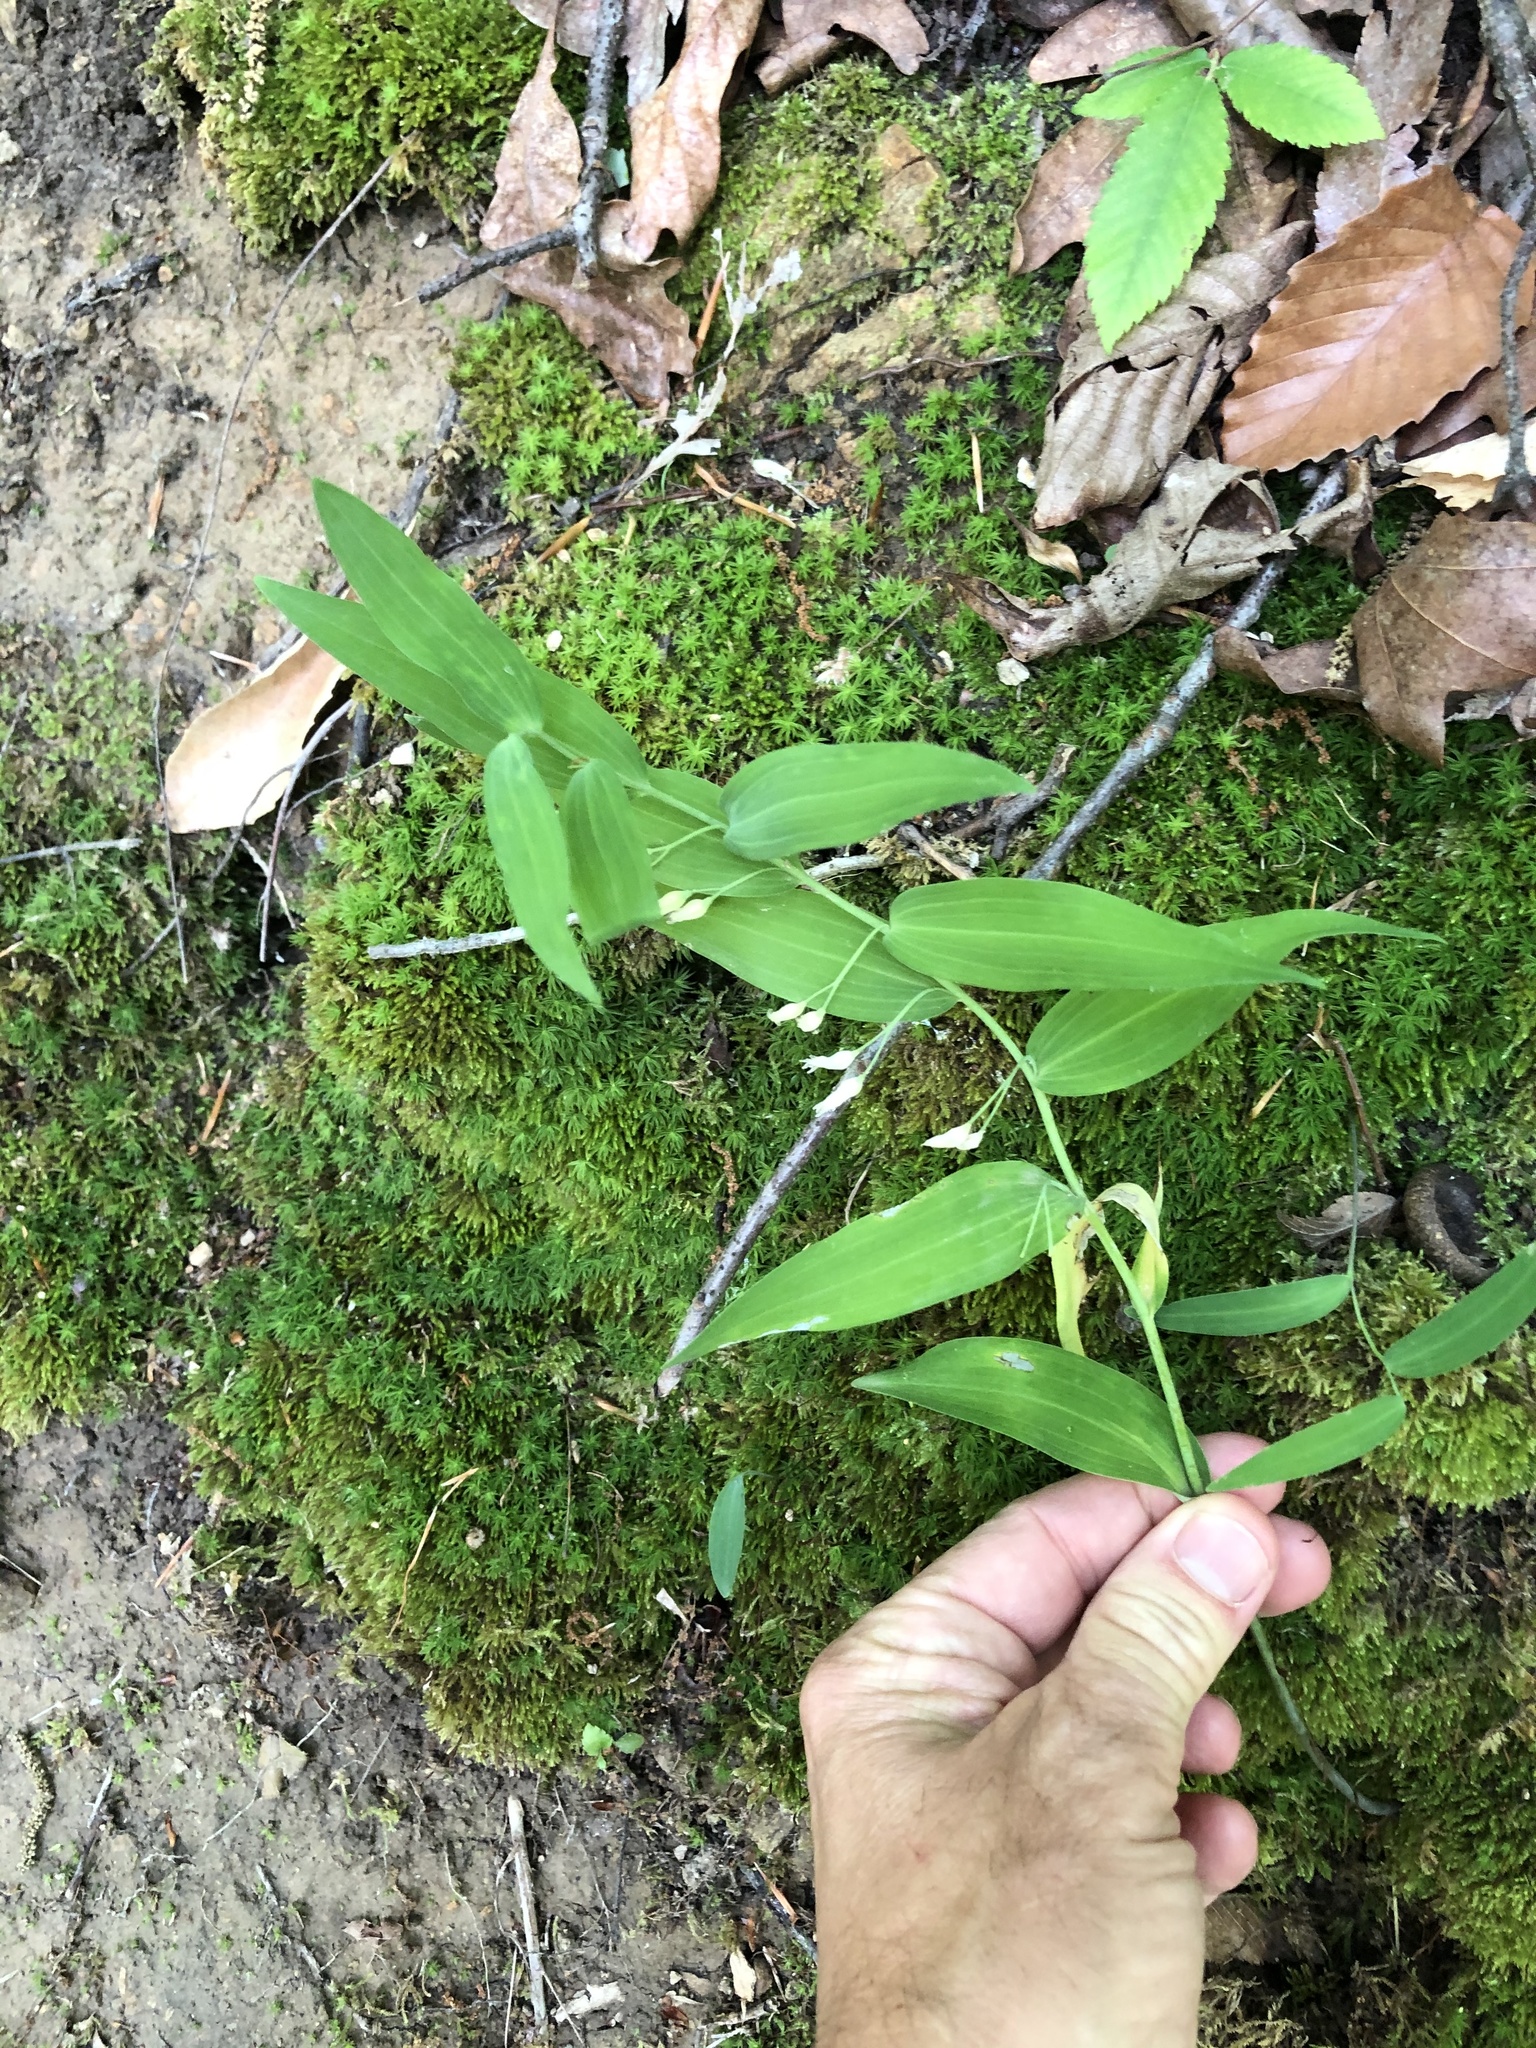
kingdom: Plantae
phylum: Tracheophyta
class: Liliopsida
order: Asparagales
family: Asparagaceae
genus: Polygonatum
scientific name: Polygonatum biflorum
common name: American solomon's-seal
